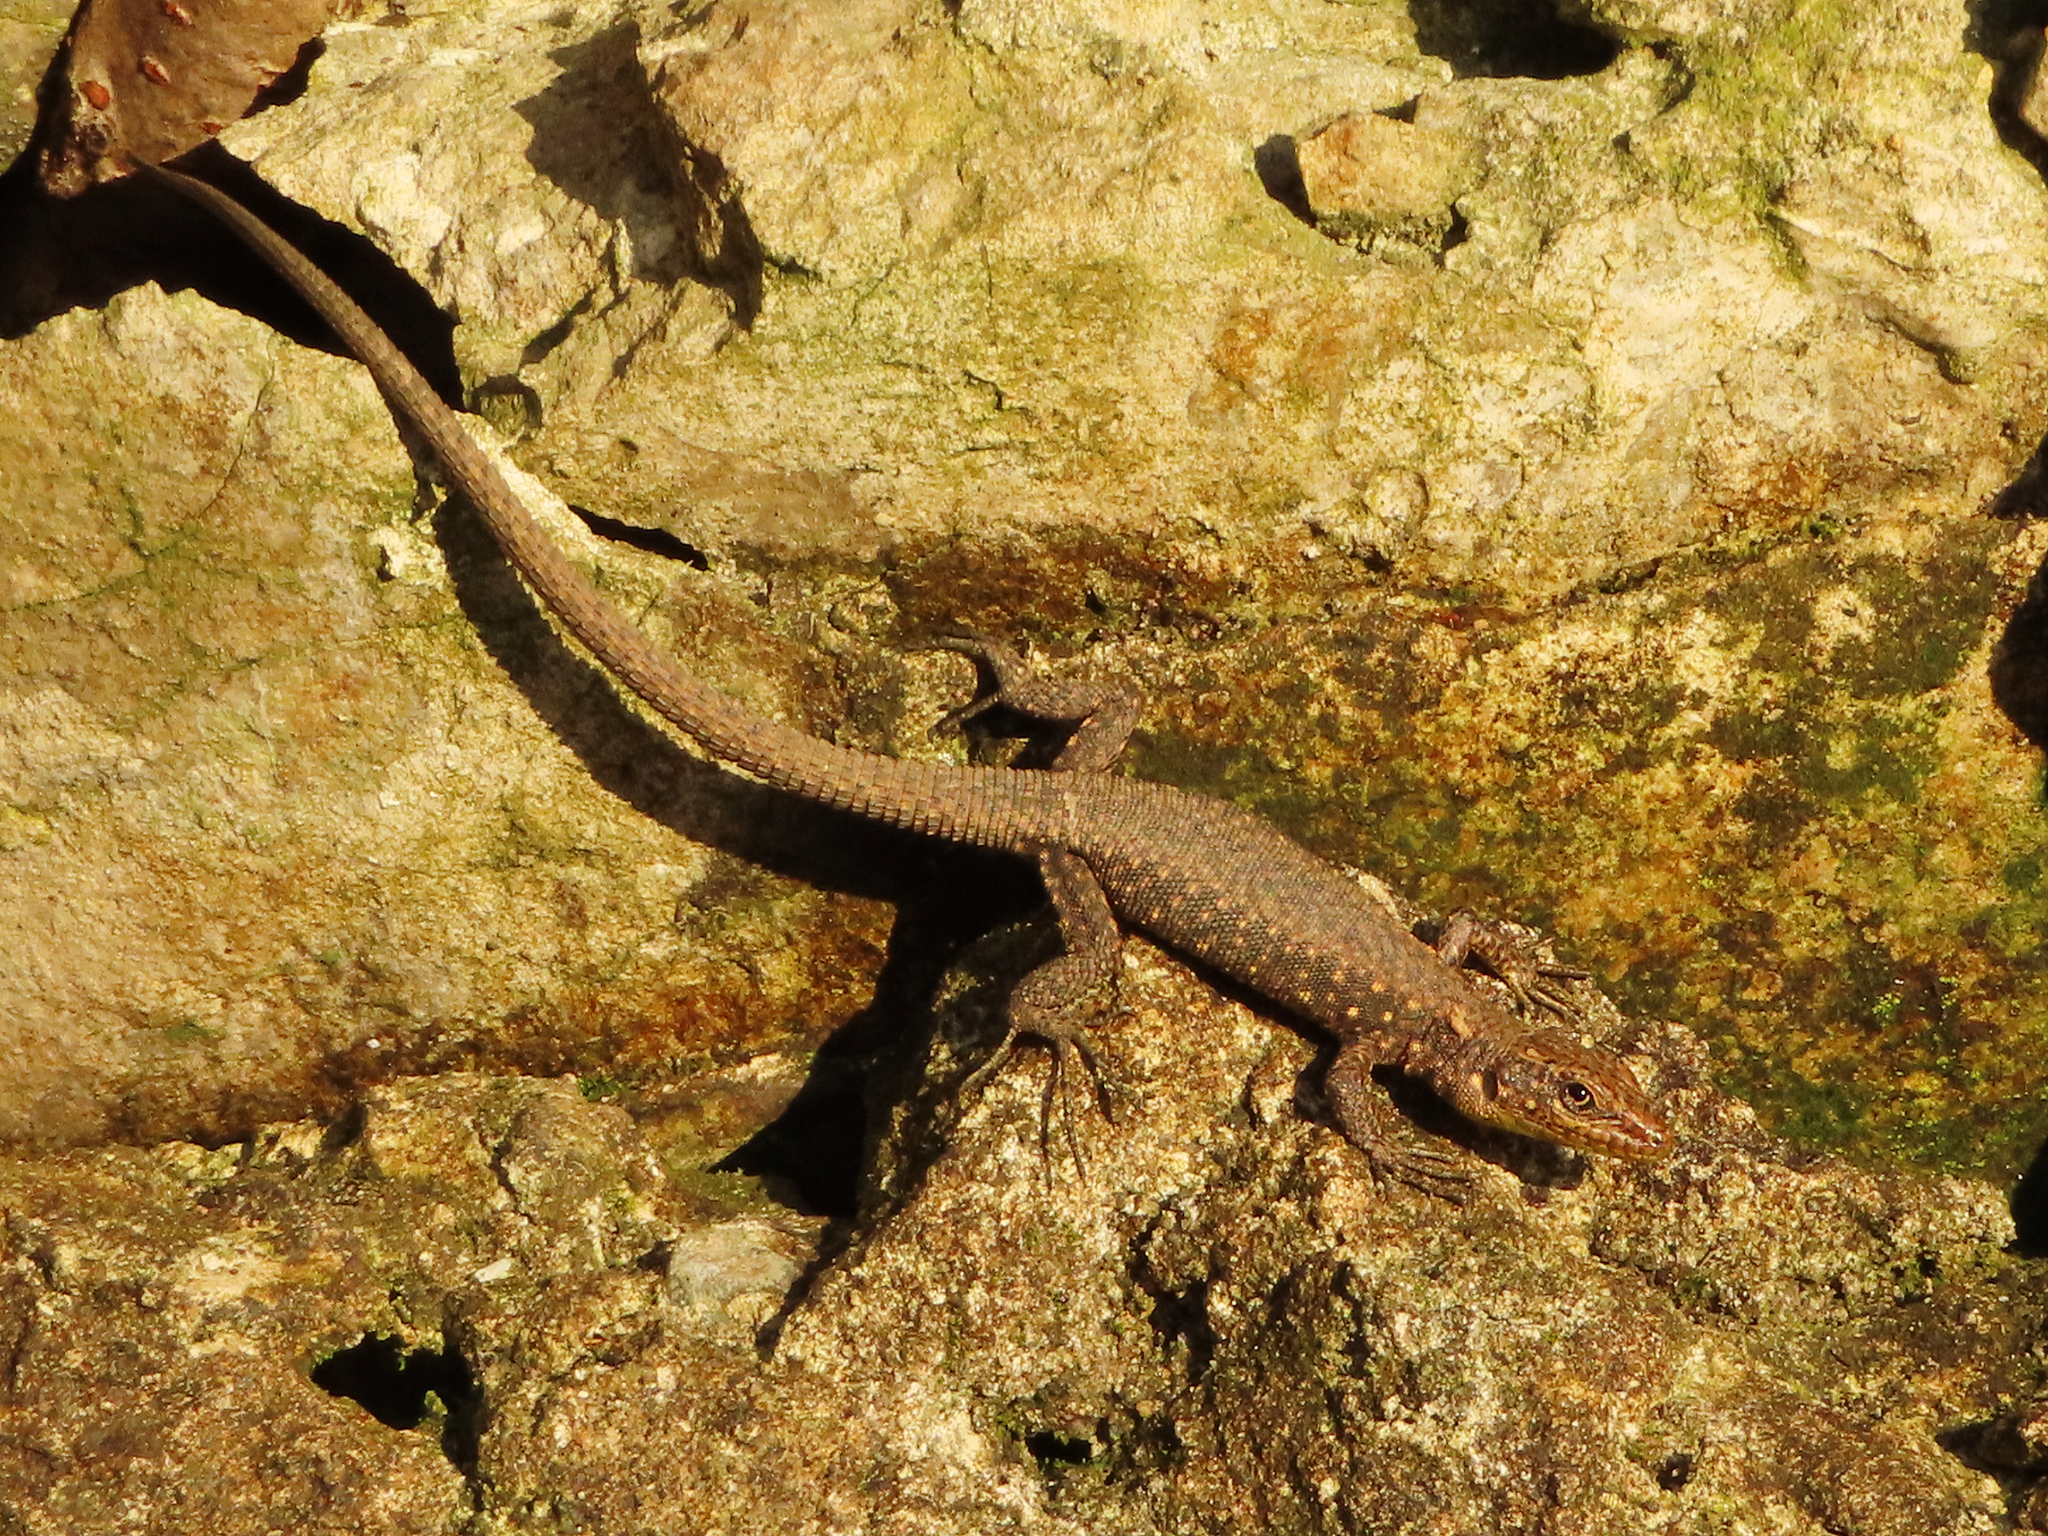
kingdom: Animalia
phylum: Chordata
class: Squamata
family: Lacertidae
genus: Darevskia
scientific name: Darevskia rudis
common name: Spiny-tailed lizard
